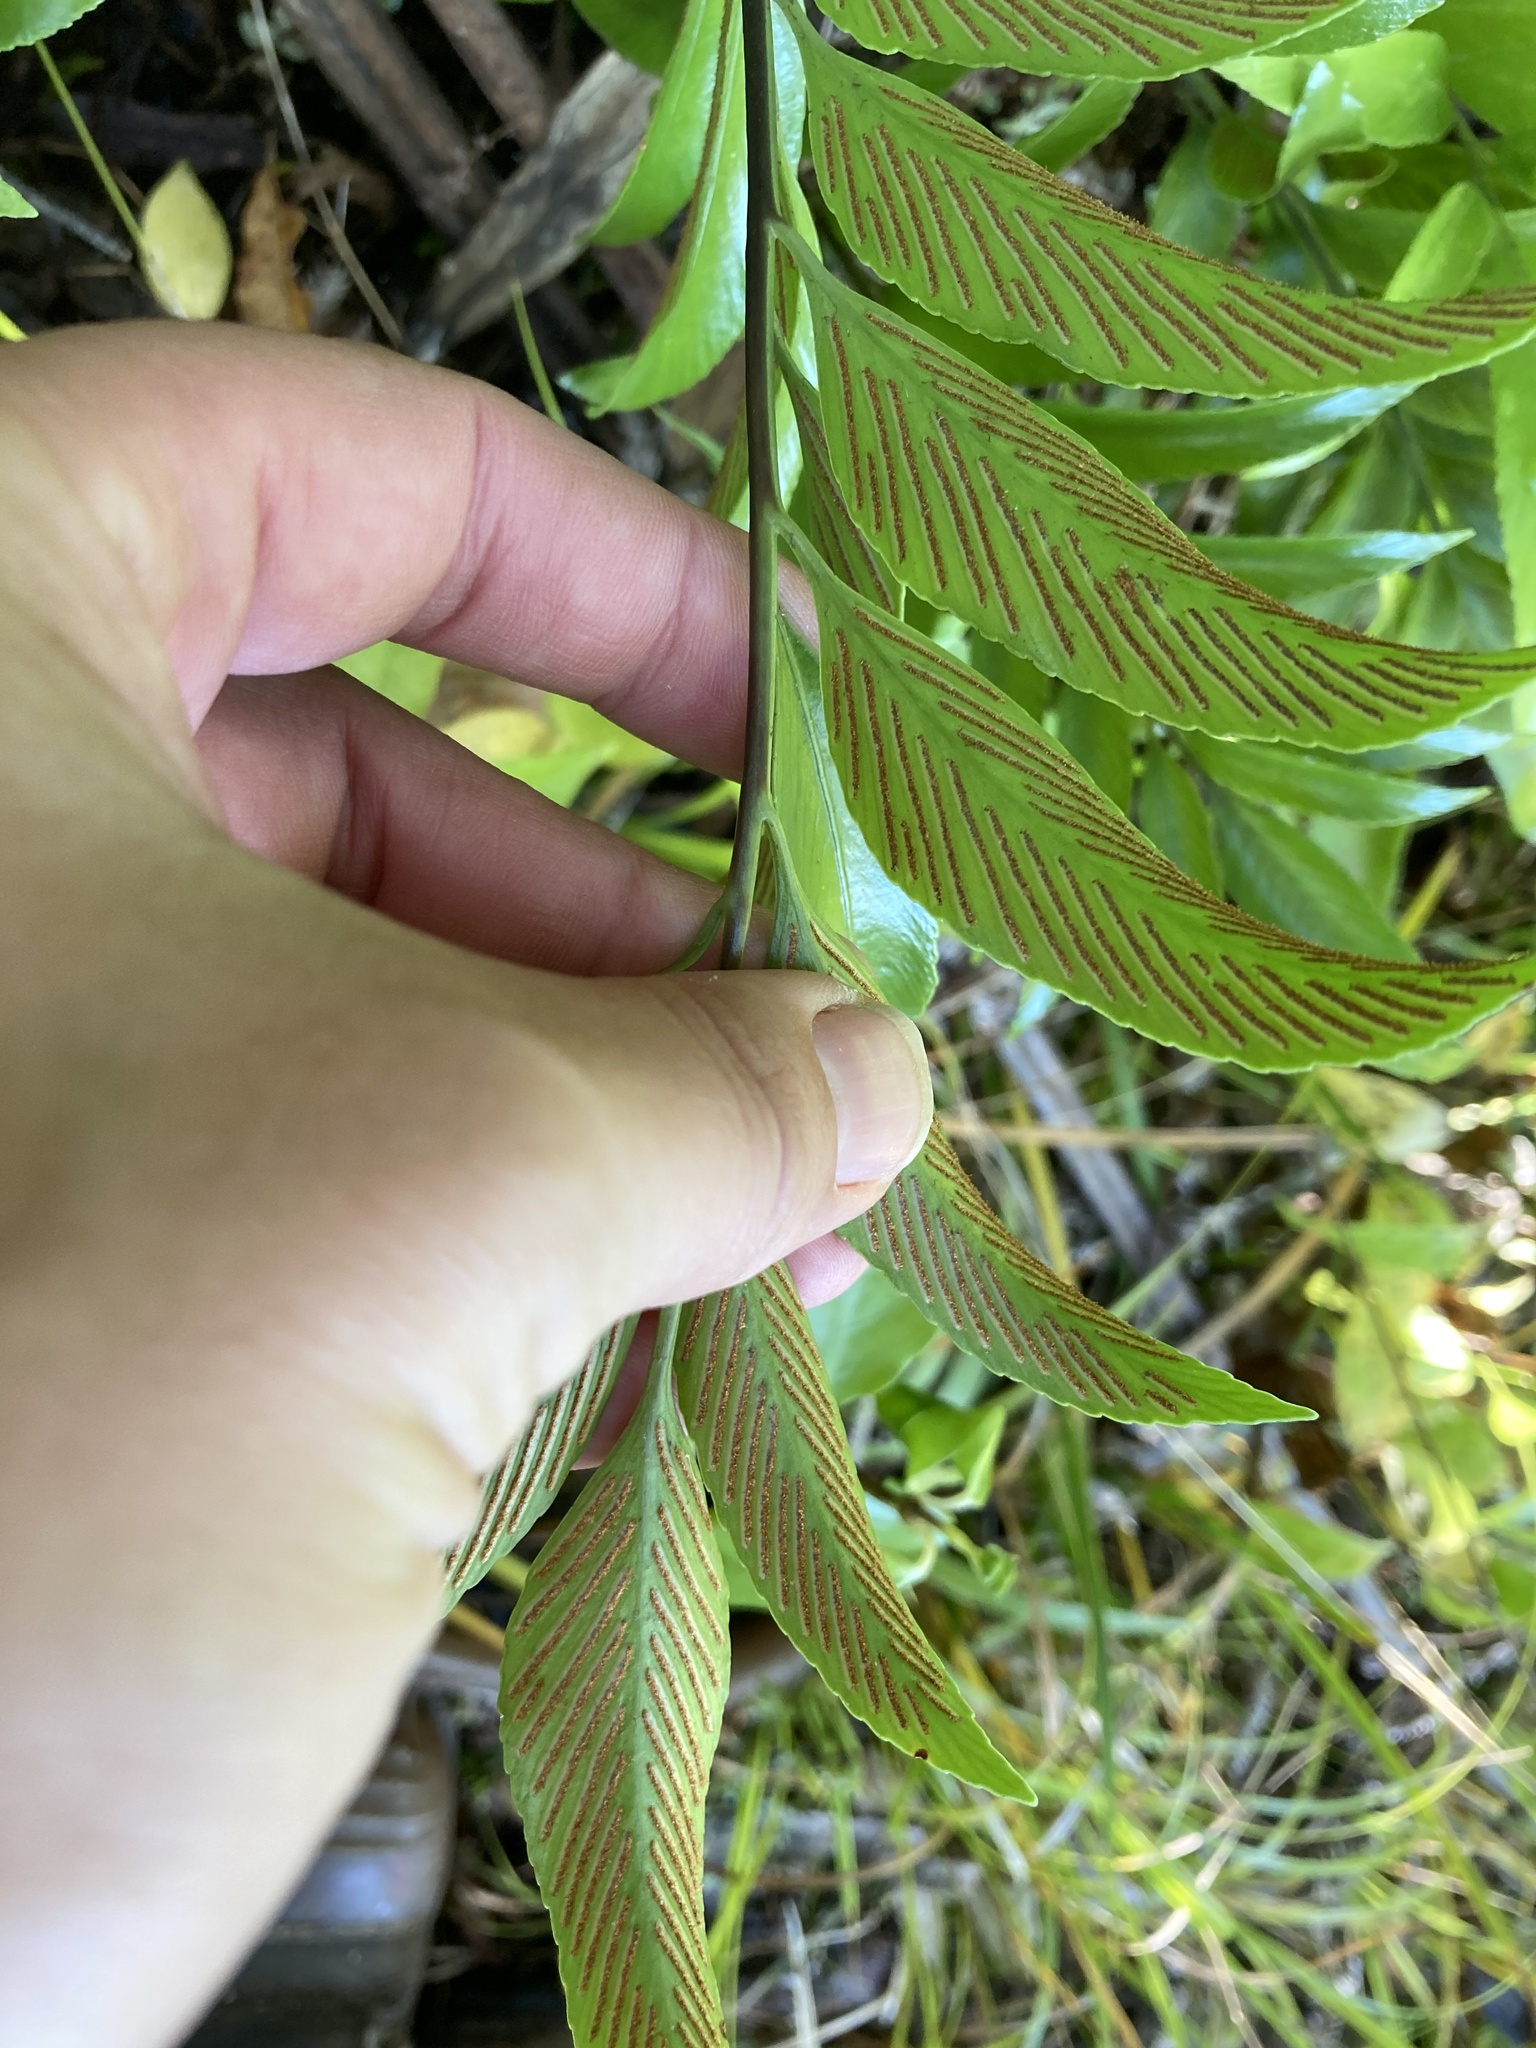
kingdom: Plantae
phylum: Tracheophyta
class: Polypodiopsida
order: Polypodiales
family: Aspleniaceae
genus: Asplenium
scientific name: Asplenium oblongifolium
